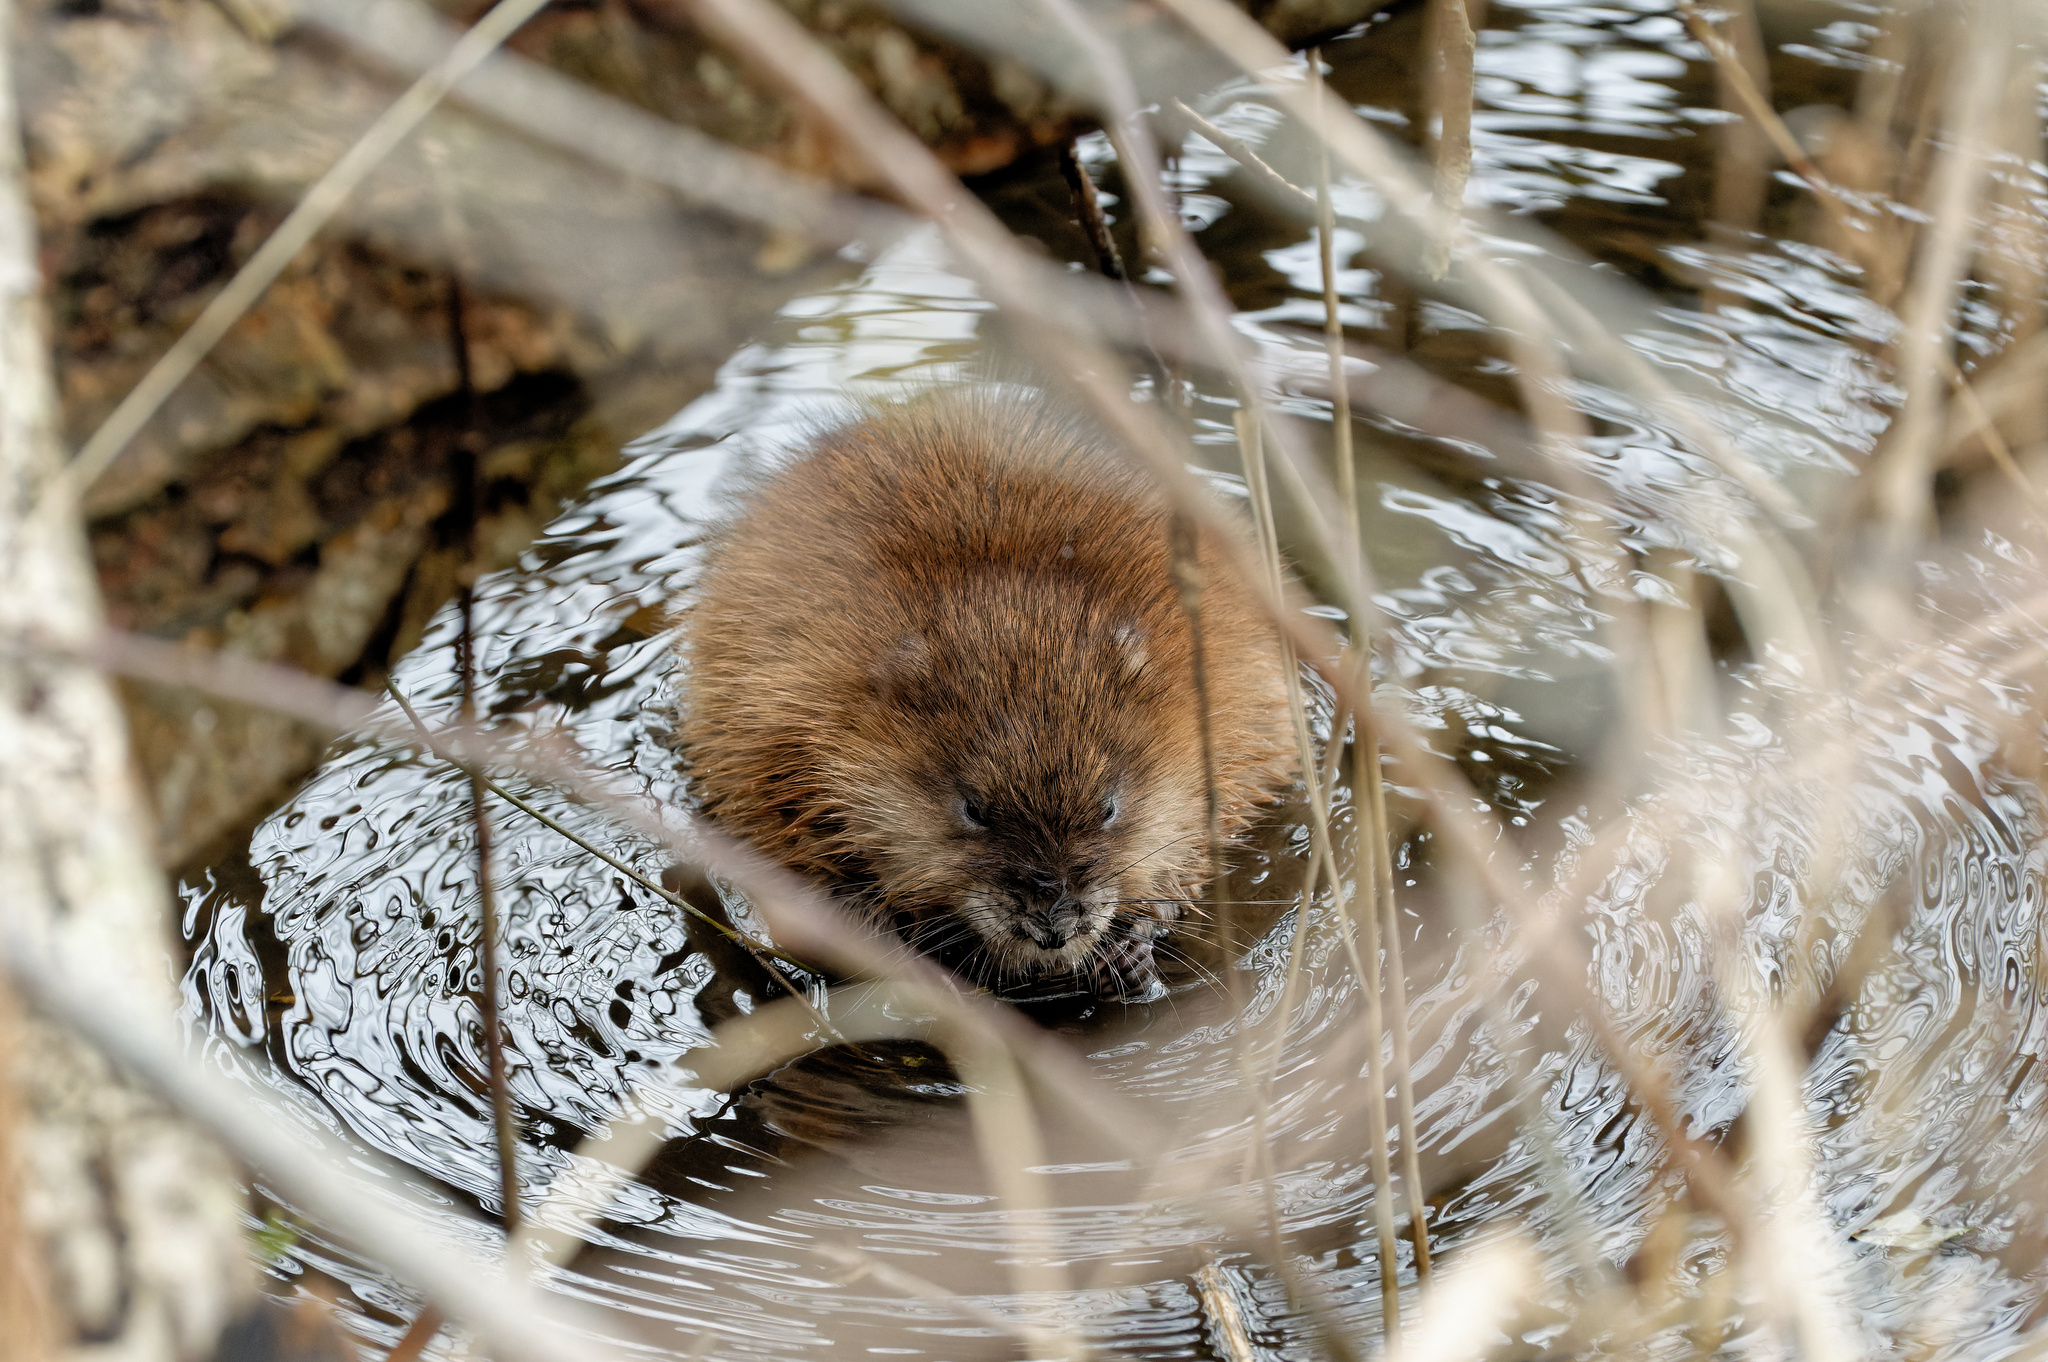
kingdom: Animalia
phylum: Chordata
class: Mammalia
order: Rodentia
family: Cricetidae
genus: Ondatra
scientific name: Ondatra zibethicus
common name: Muskrat
